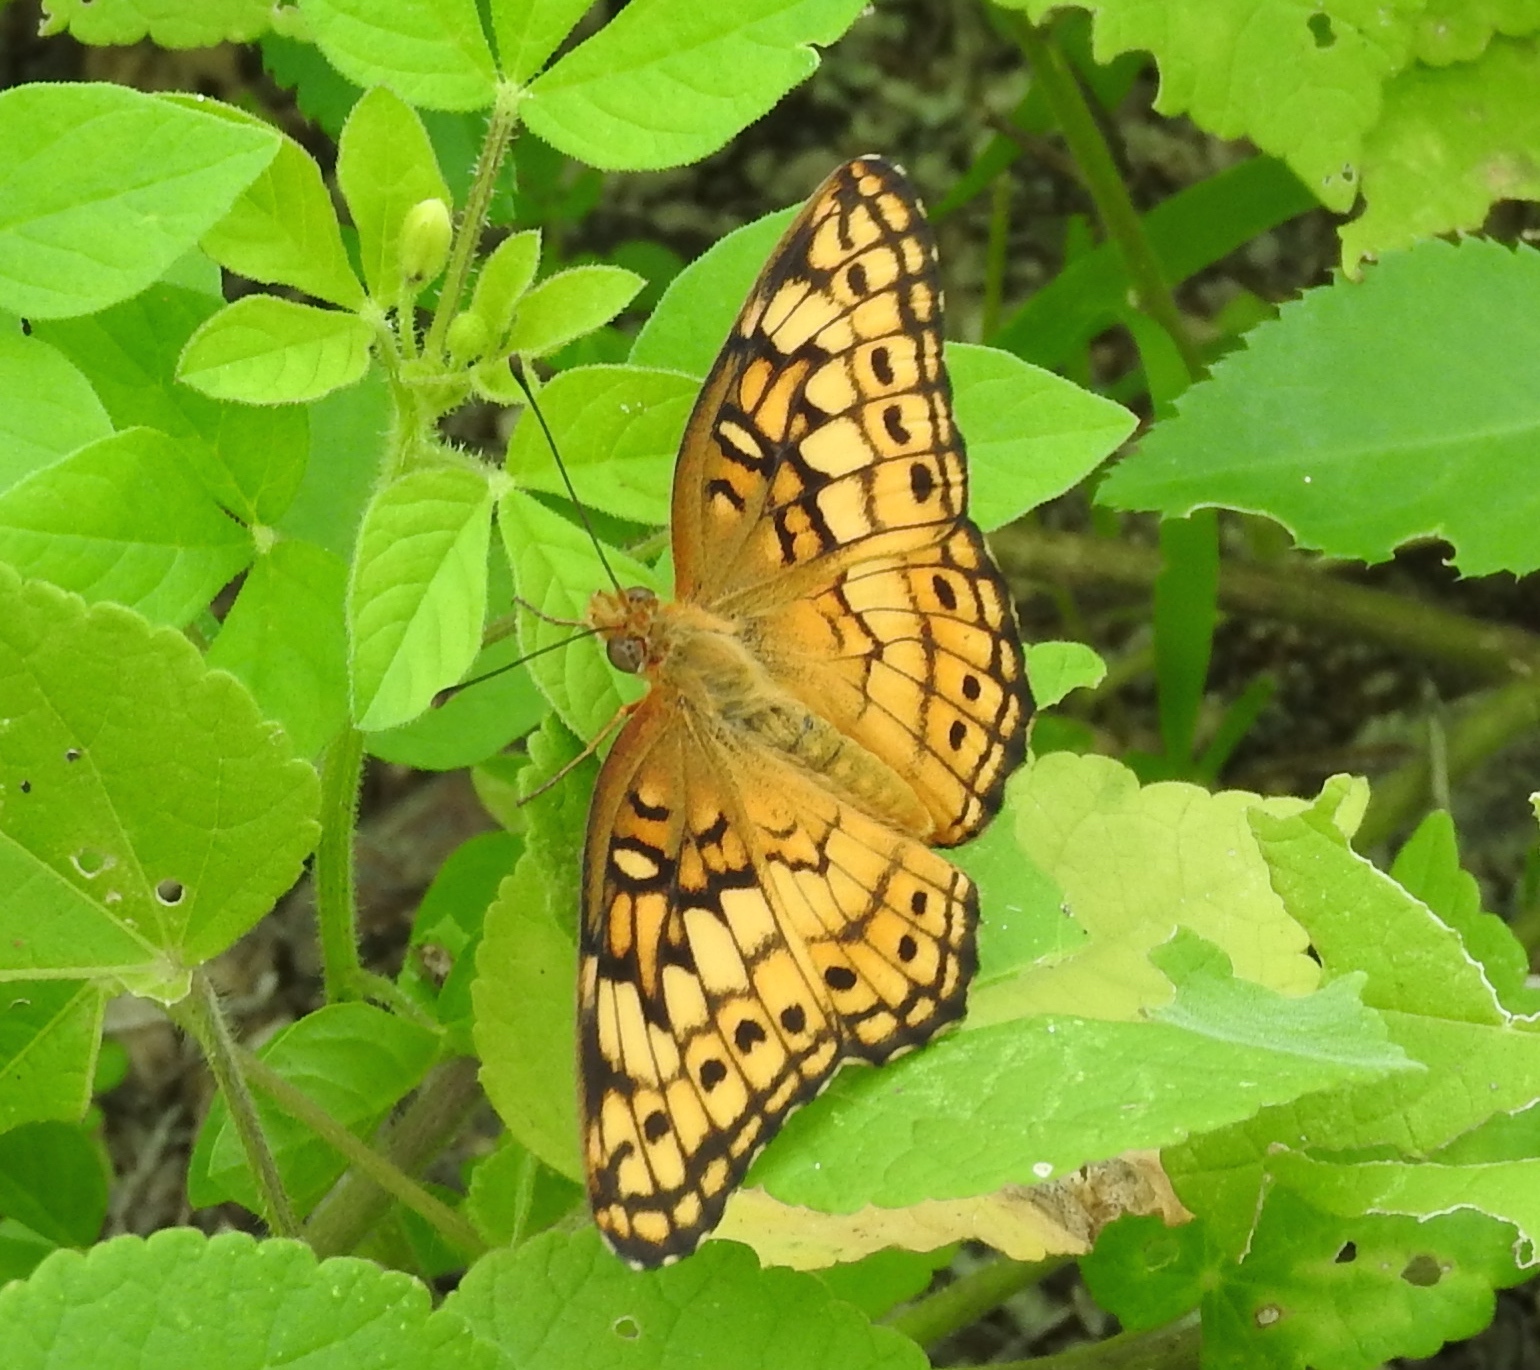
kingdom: Animalia
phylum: Arthropoda
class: Insecta
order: Lepidoptera
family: Nymphalidae
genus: Euptoieta
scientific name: Euptoieta claudia
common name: Variegated fritillary
